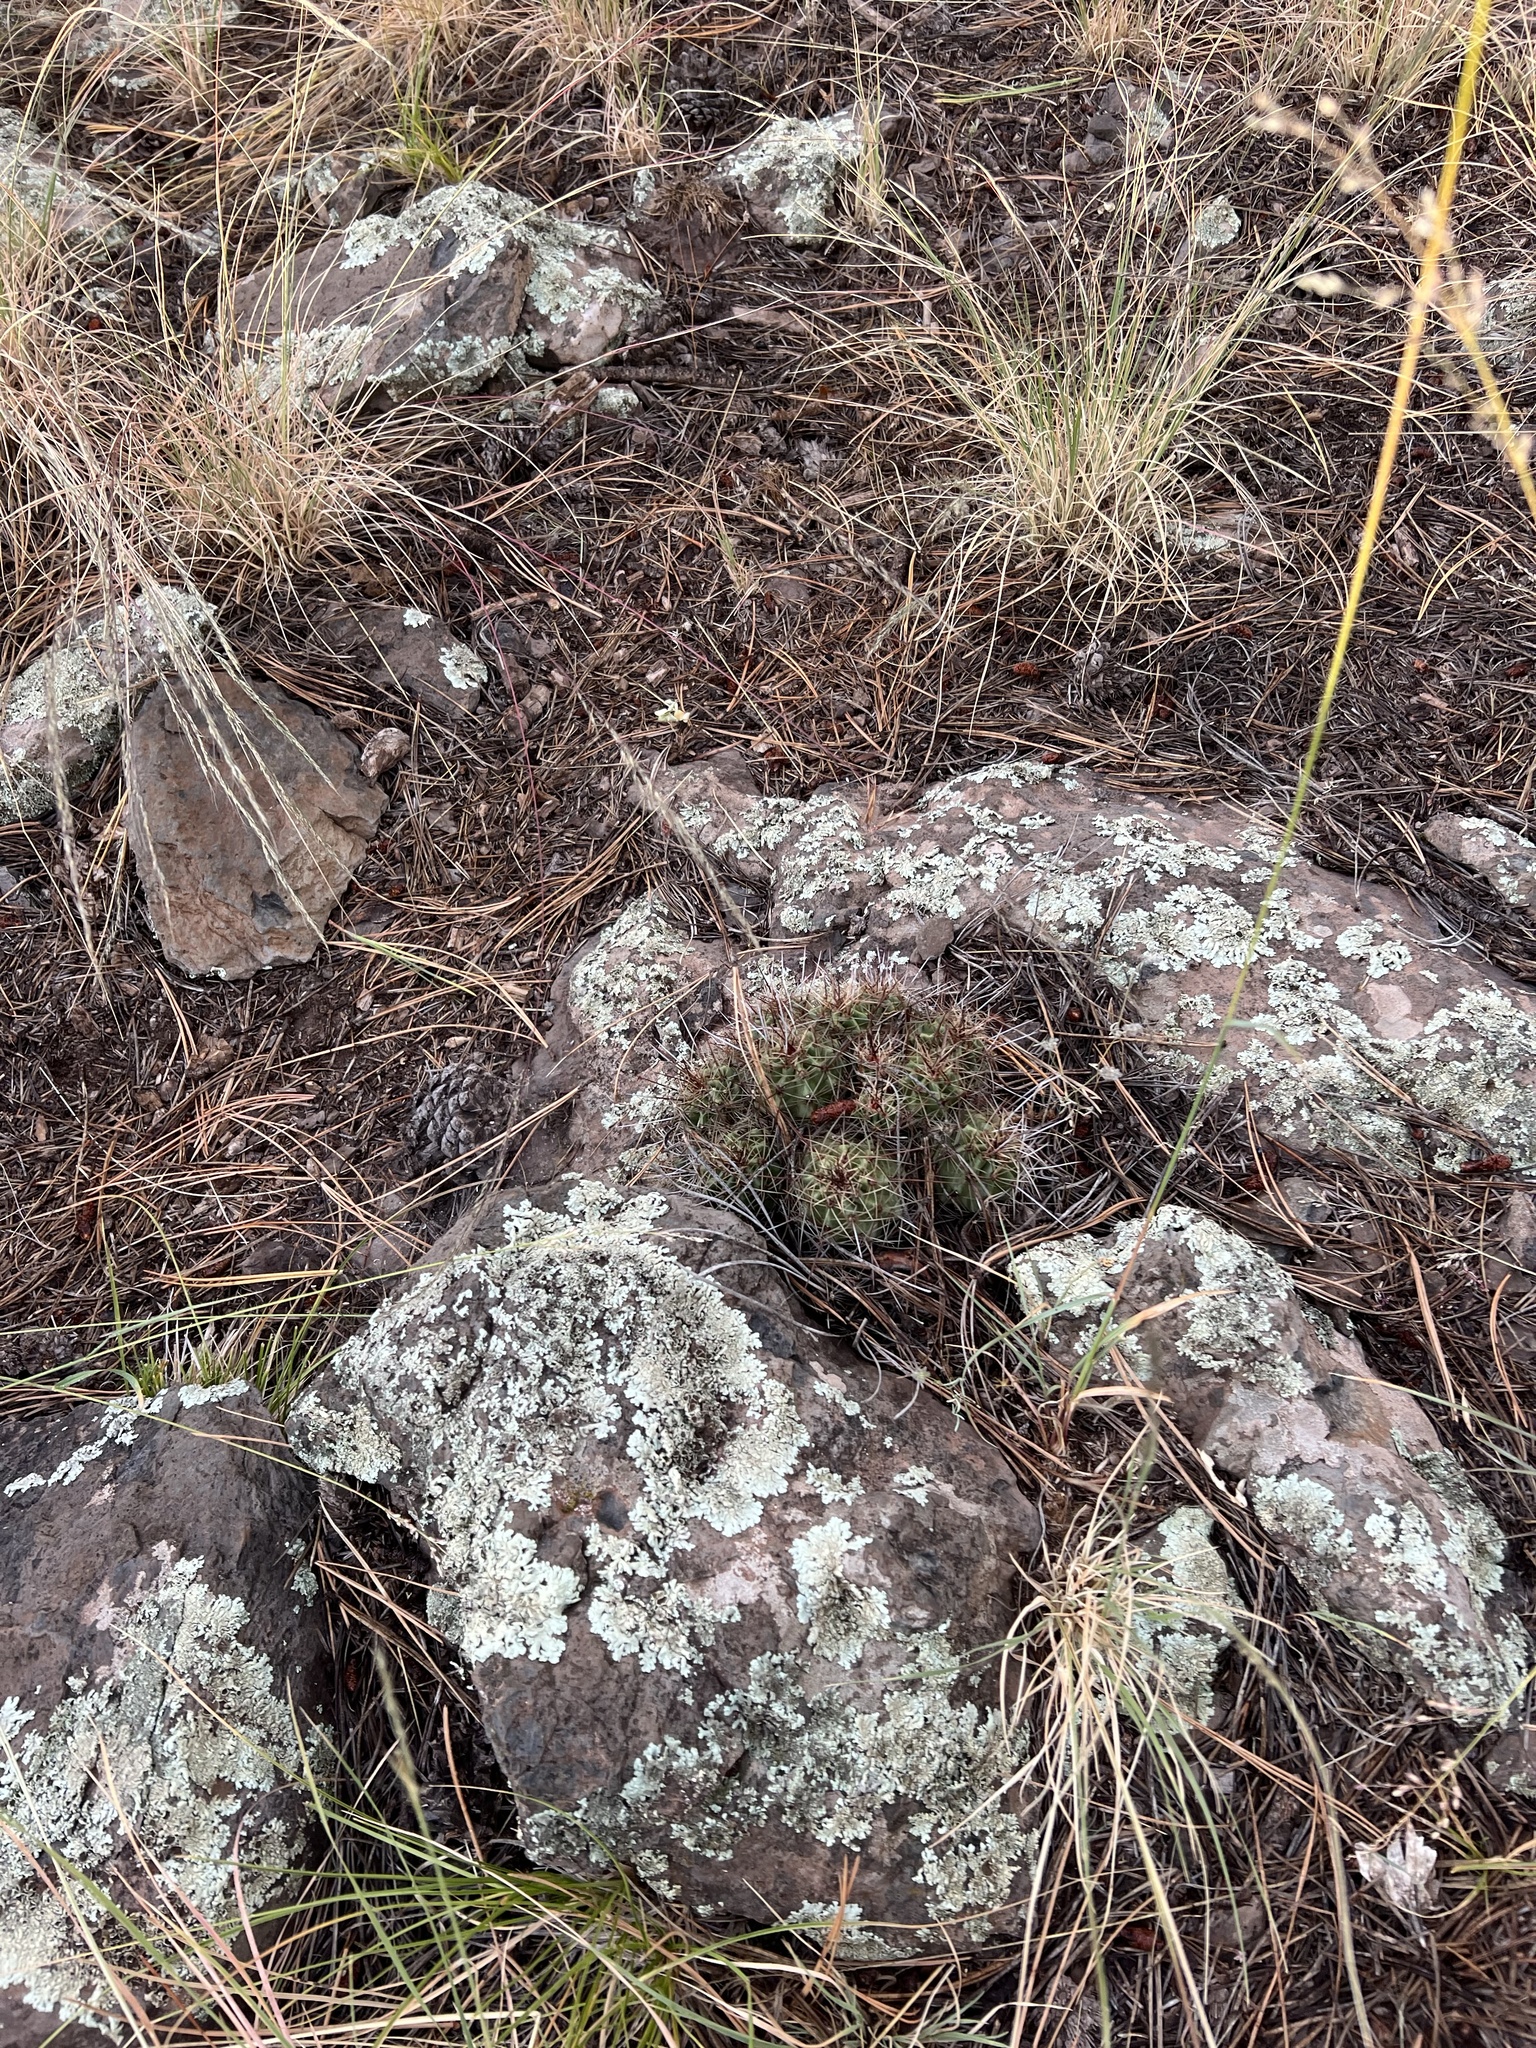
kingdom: Plantae
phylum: Tracheophyta
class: Magnoliopsida
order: Caryophyllales
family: Cactaceae
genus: Echinocereus
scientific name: Echinocereus bakeri
